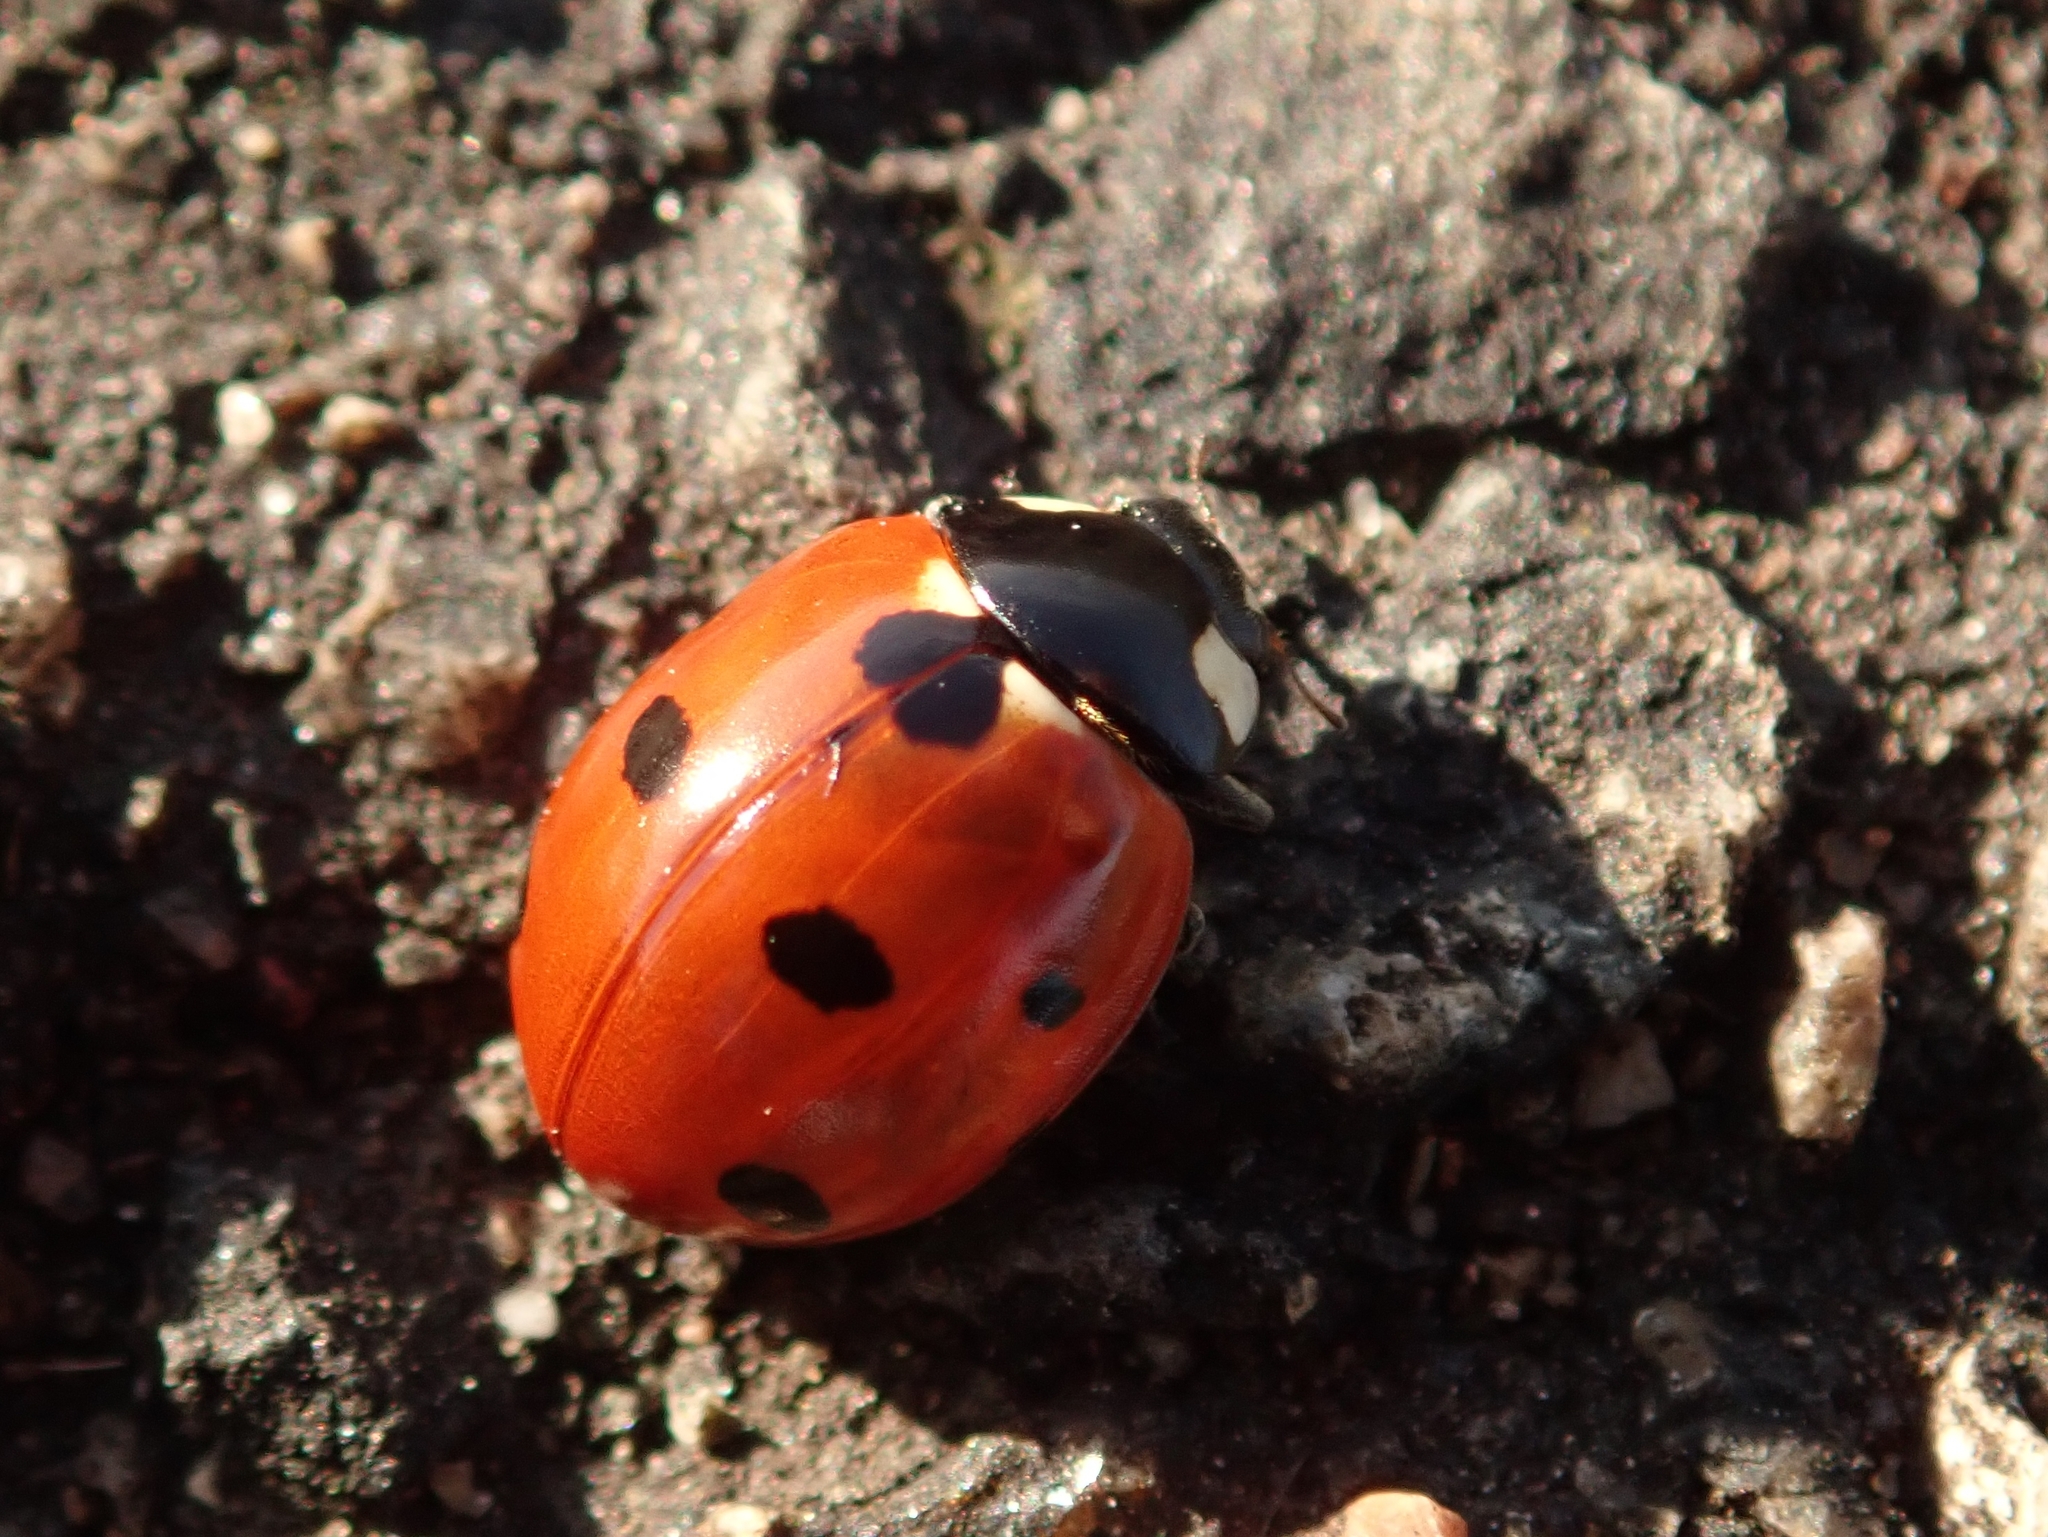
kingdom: Animalia
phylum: Arthropoda
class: Insecta
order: Coleoptera
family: Coccinellidae
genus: Coccinella
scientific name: Coccinella septempunctata
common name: Sevenspotted lady beetle
